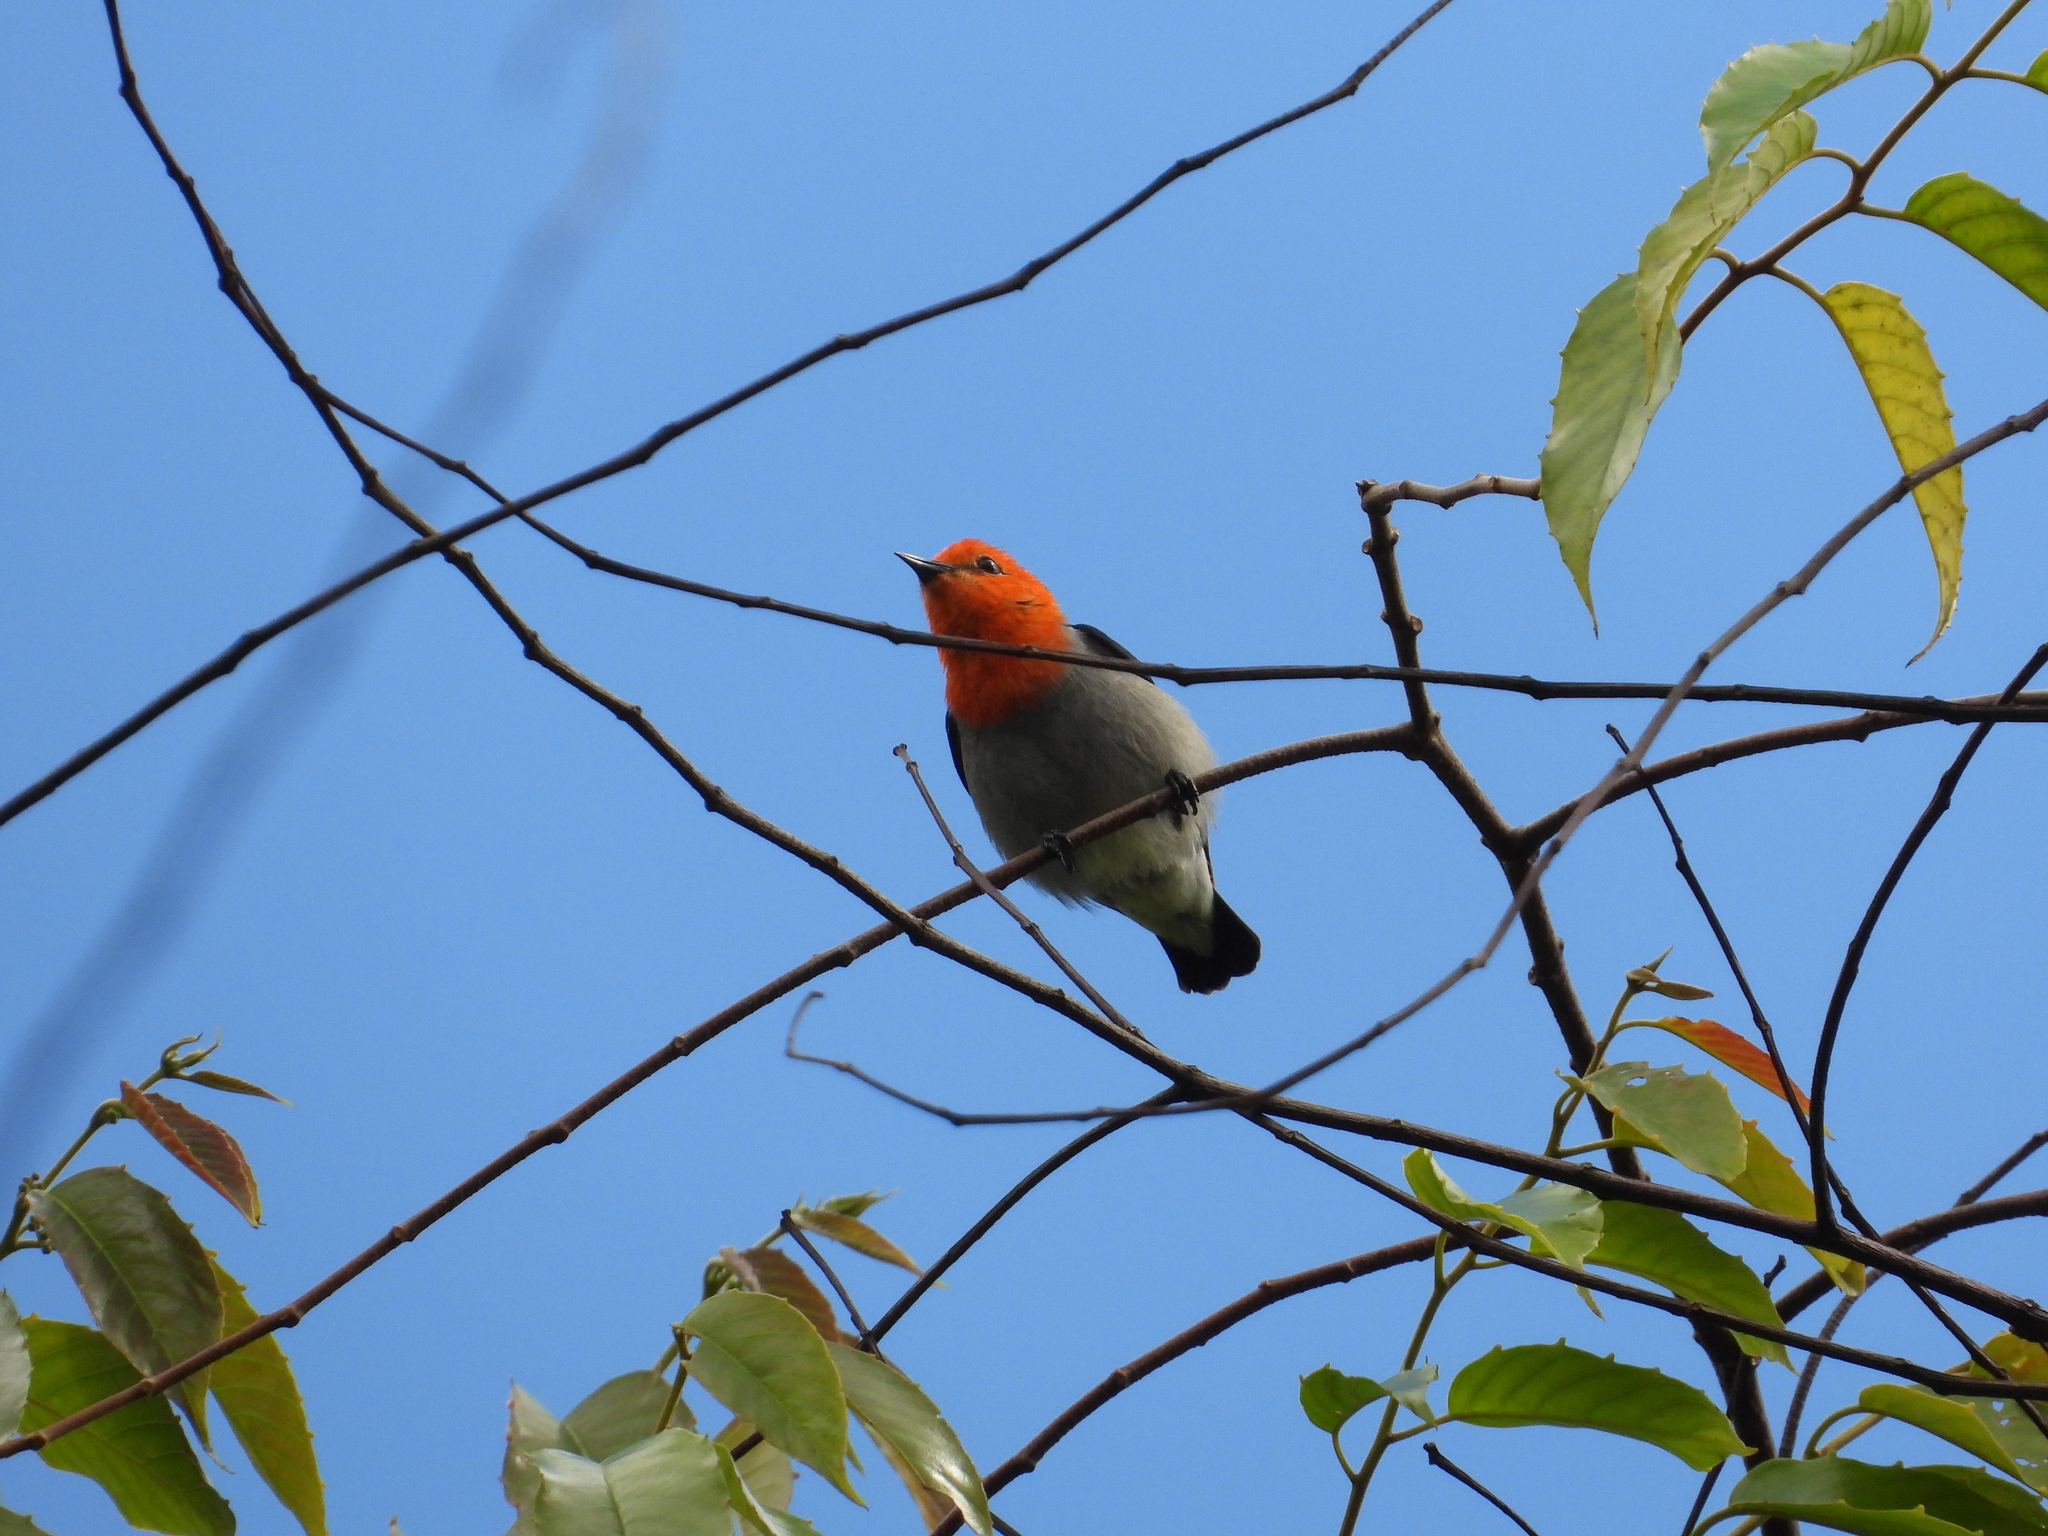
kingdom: Animalia
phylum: Chordata
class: Aves
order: Passeriformes
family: Dicaeidae
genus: Dicaeum
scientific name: Dicaeum trochileum
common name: Scarlet-headed flowerpecker
